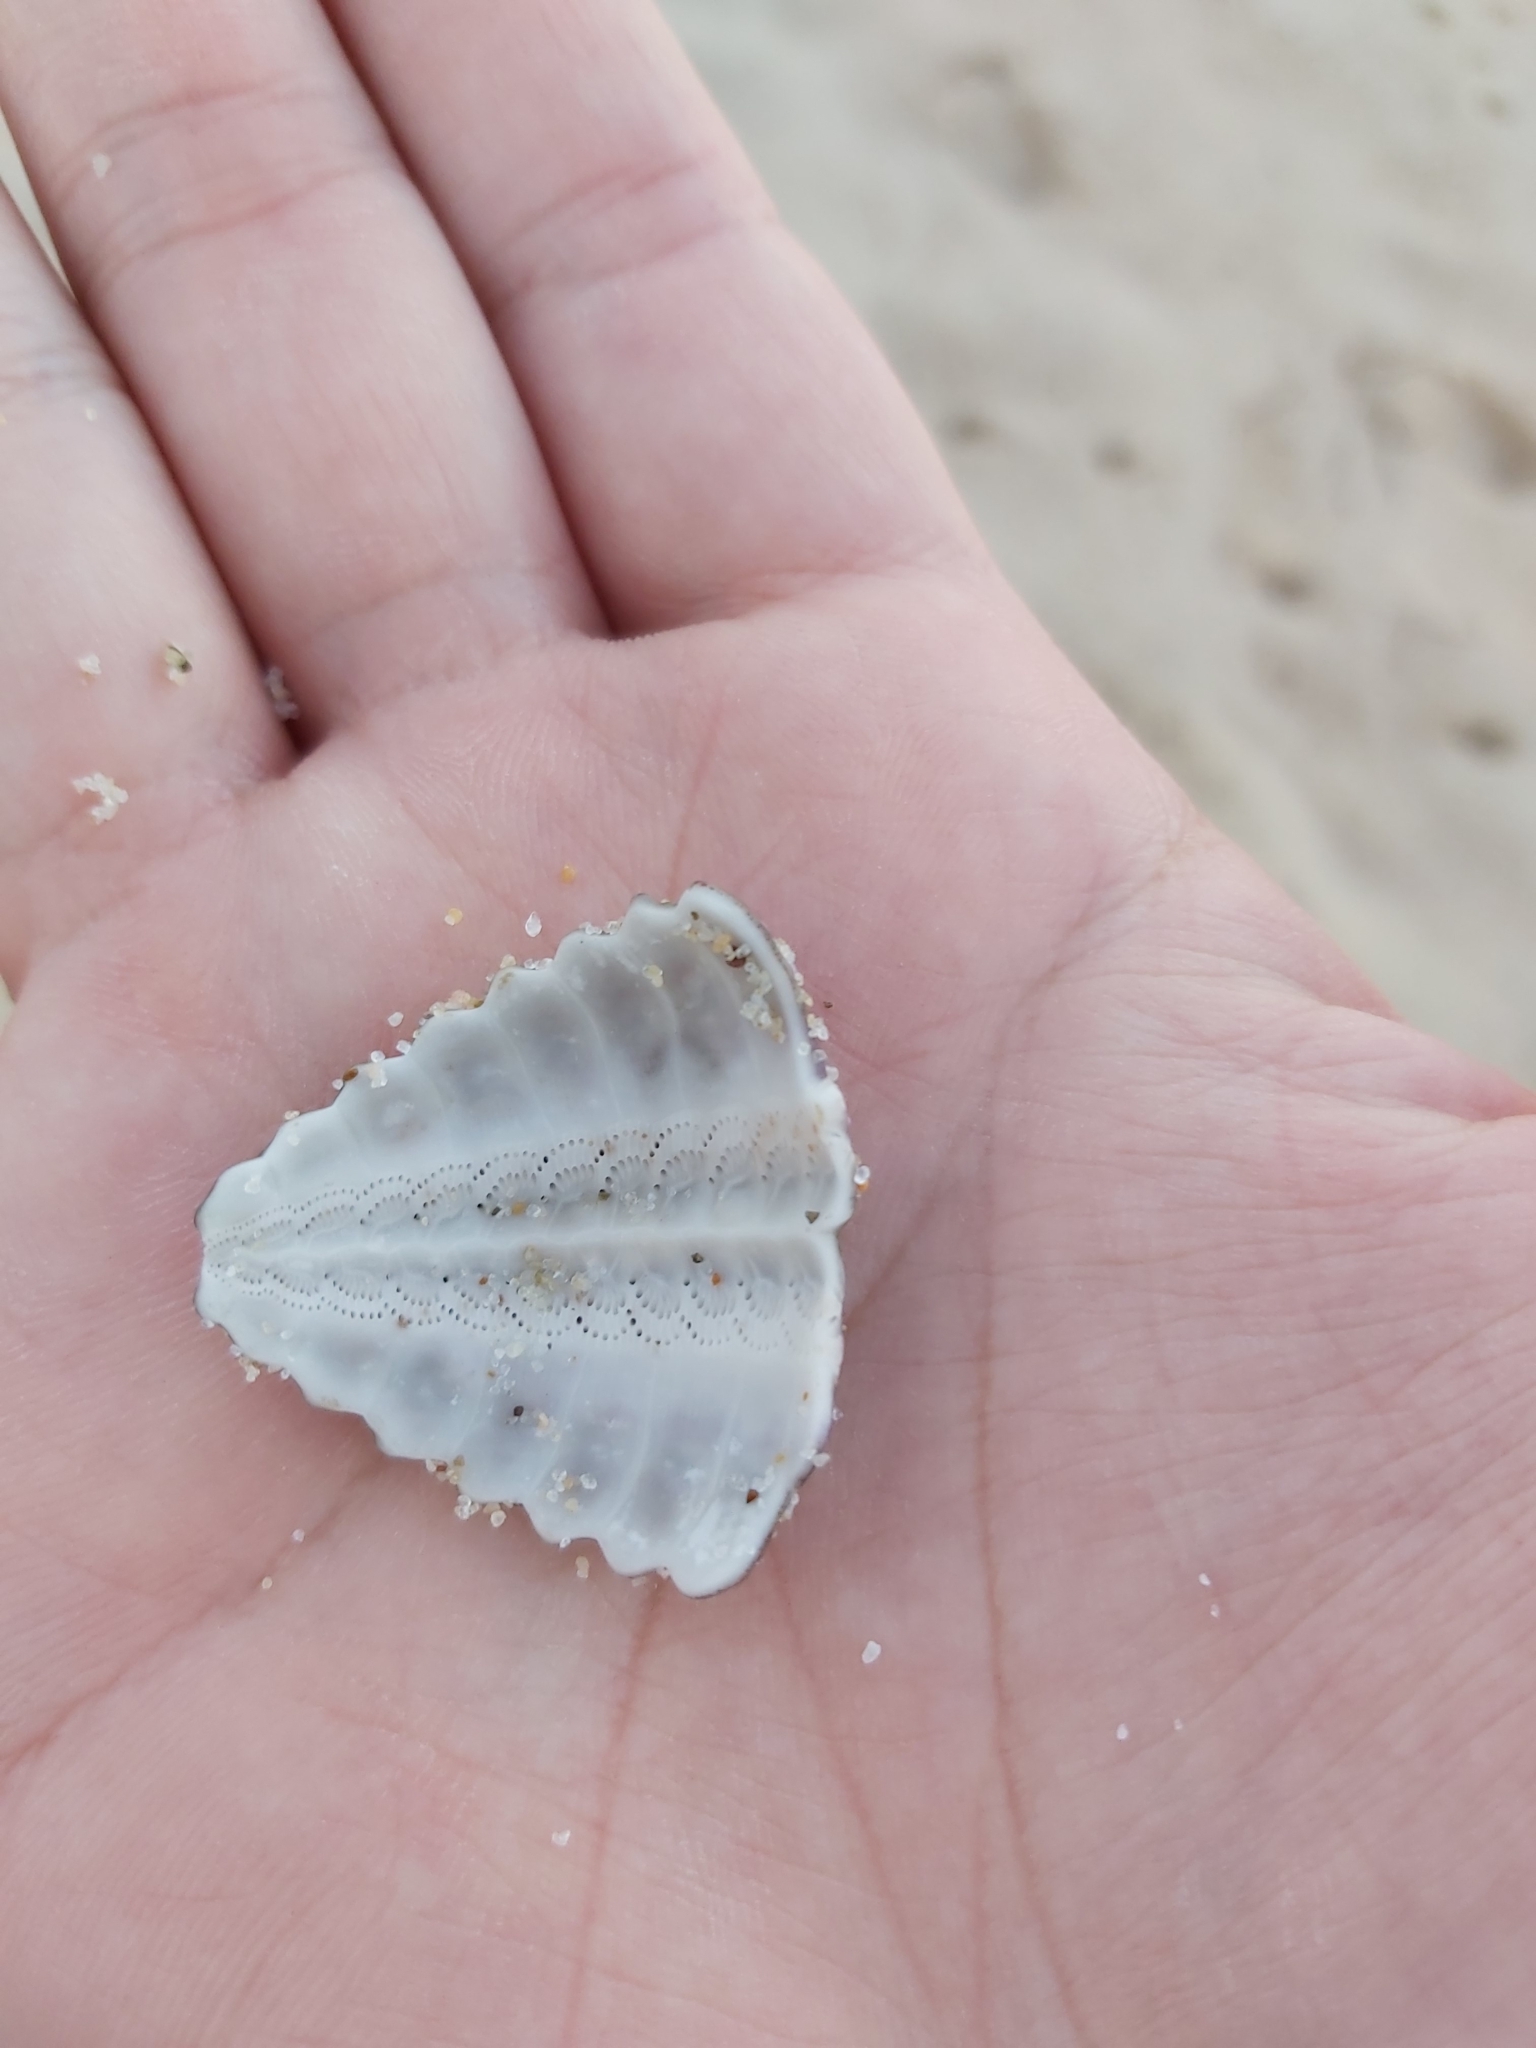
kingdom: Animalia
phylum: Echinodermata
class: Echinoidea
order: Camarodonta
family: Echinometridae
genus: Heliocidaris
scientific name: Heliocidaris erythrogramma
